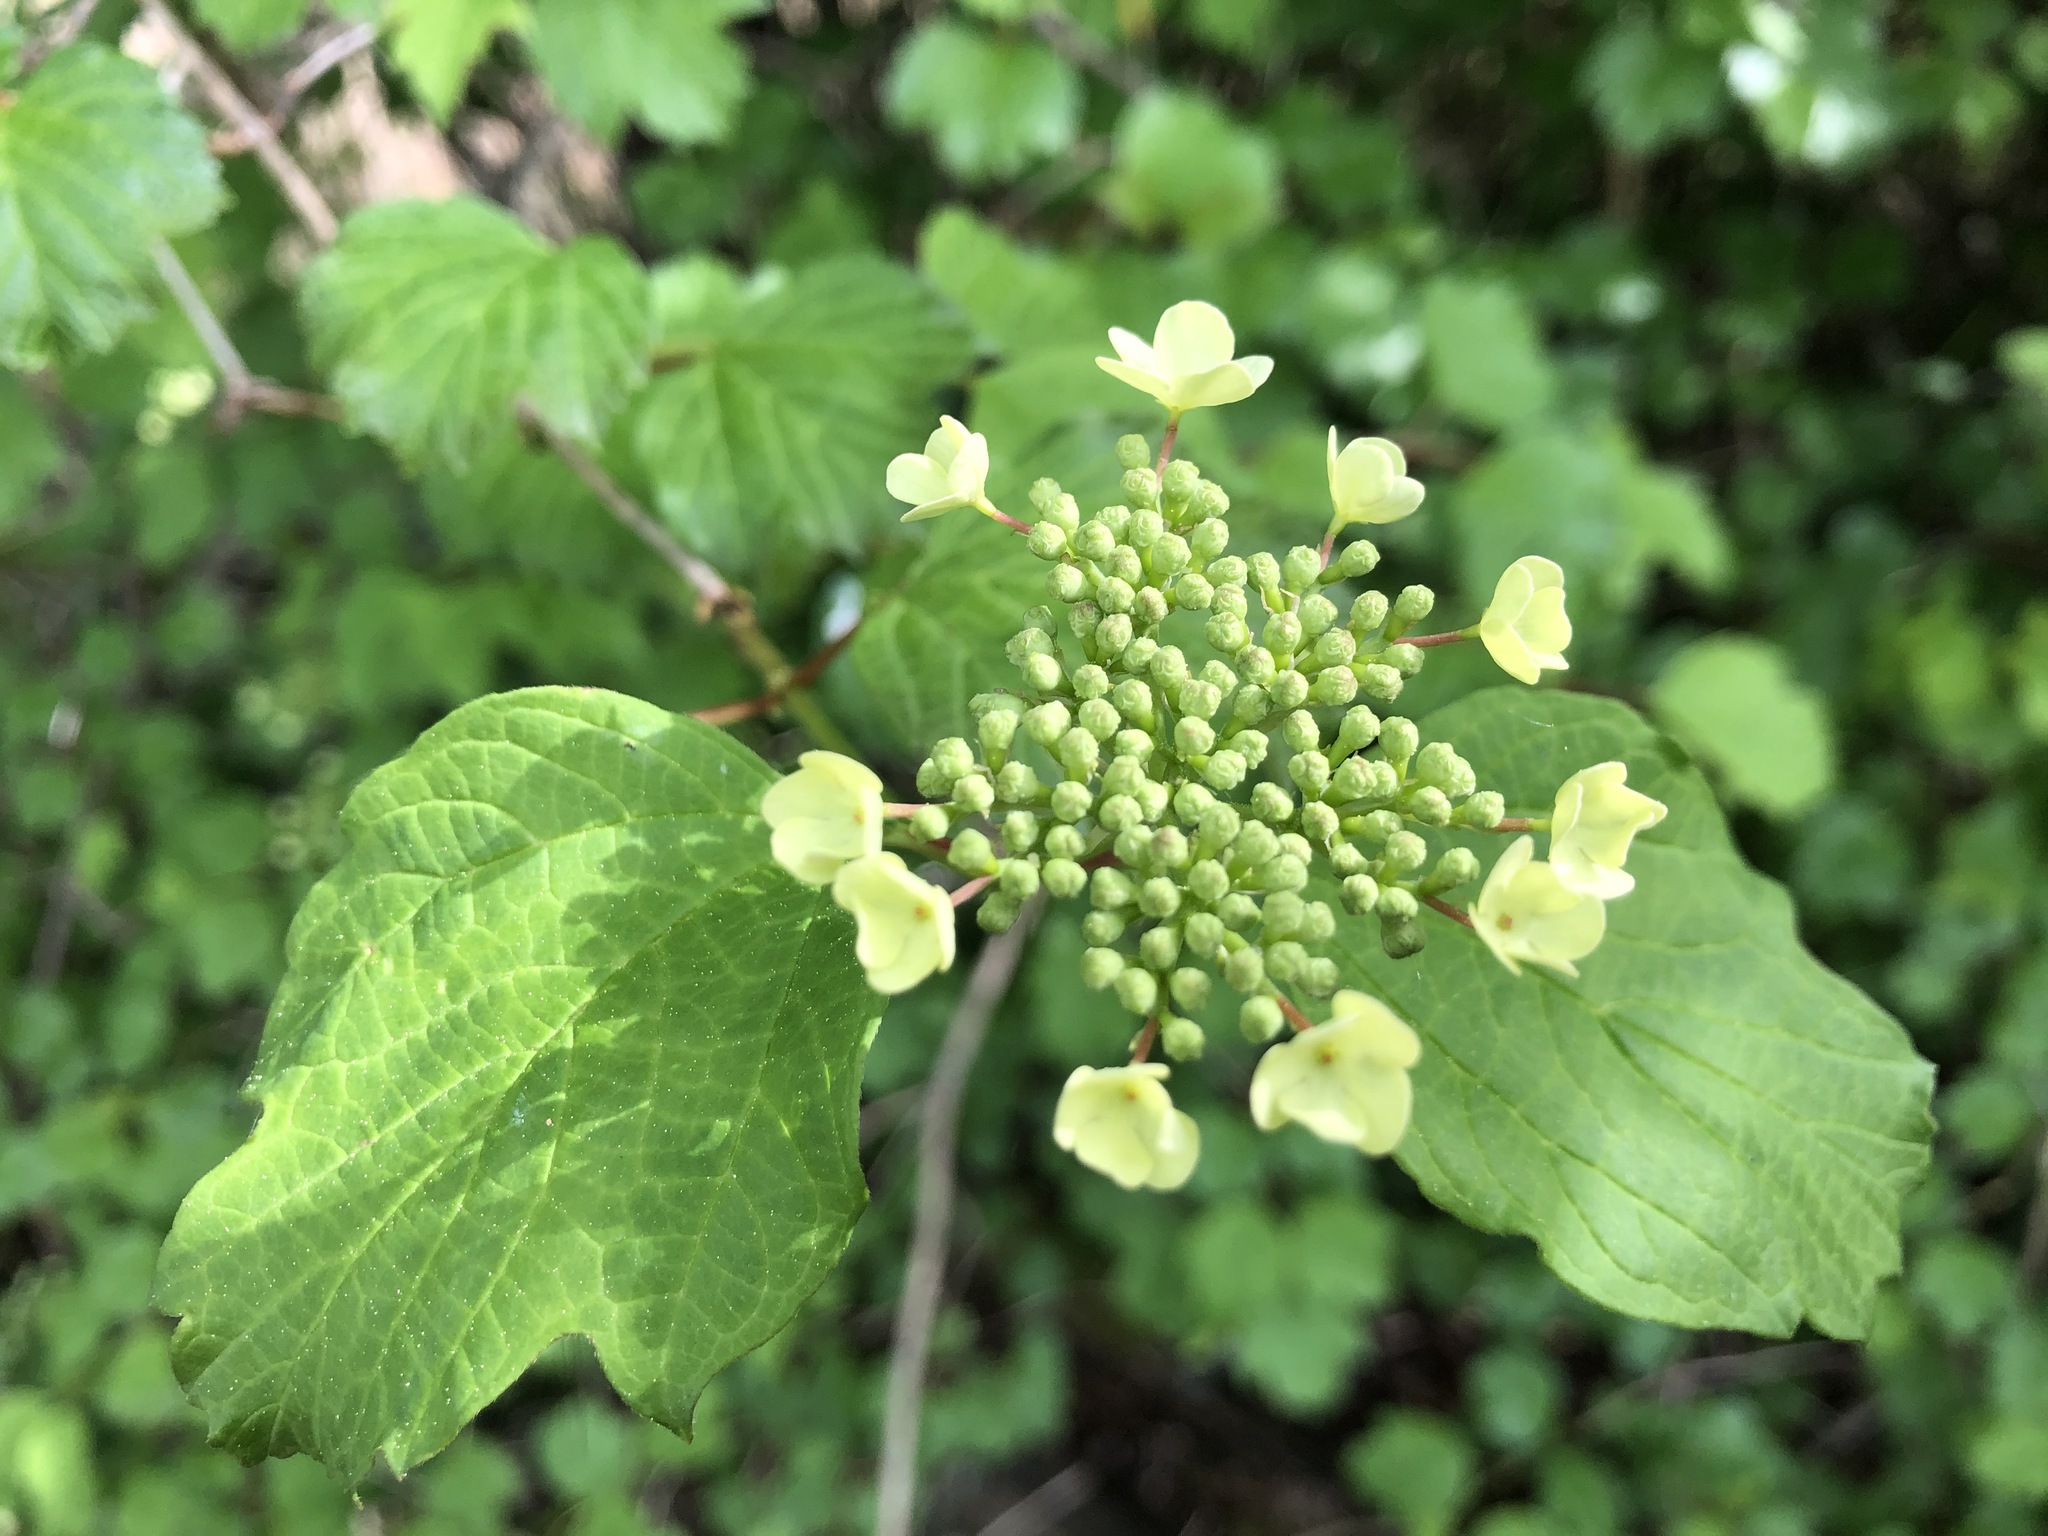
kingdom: Plantae
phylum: Tracheophyta
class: Magnoliopsida
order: Dipsacales
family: Viburnaceae
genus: Viburnum
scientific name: Viburnum opulus
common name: Guelder-rose
